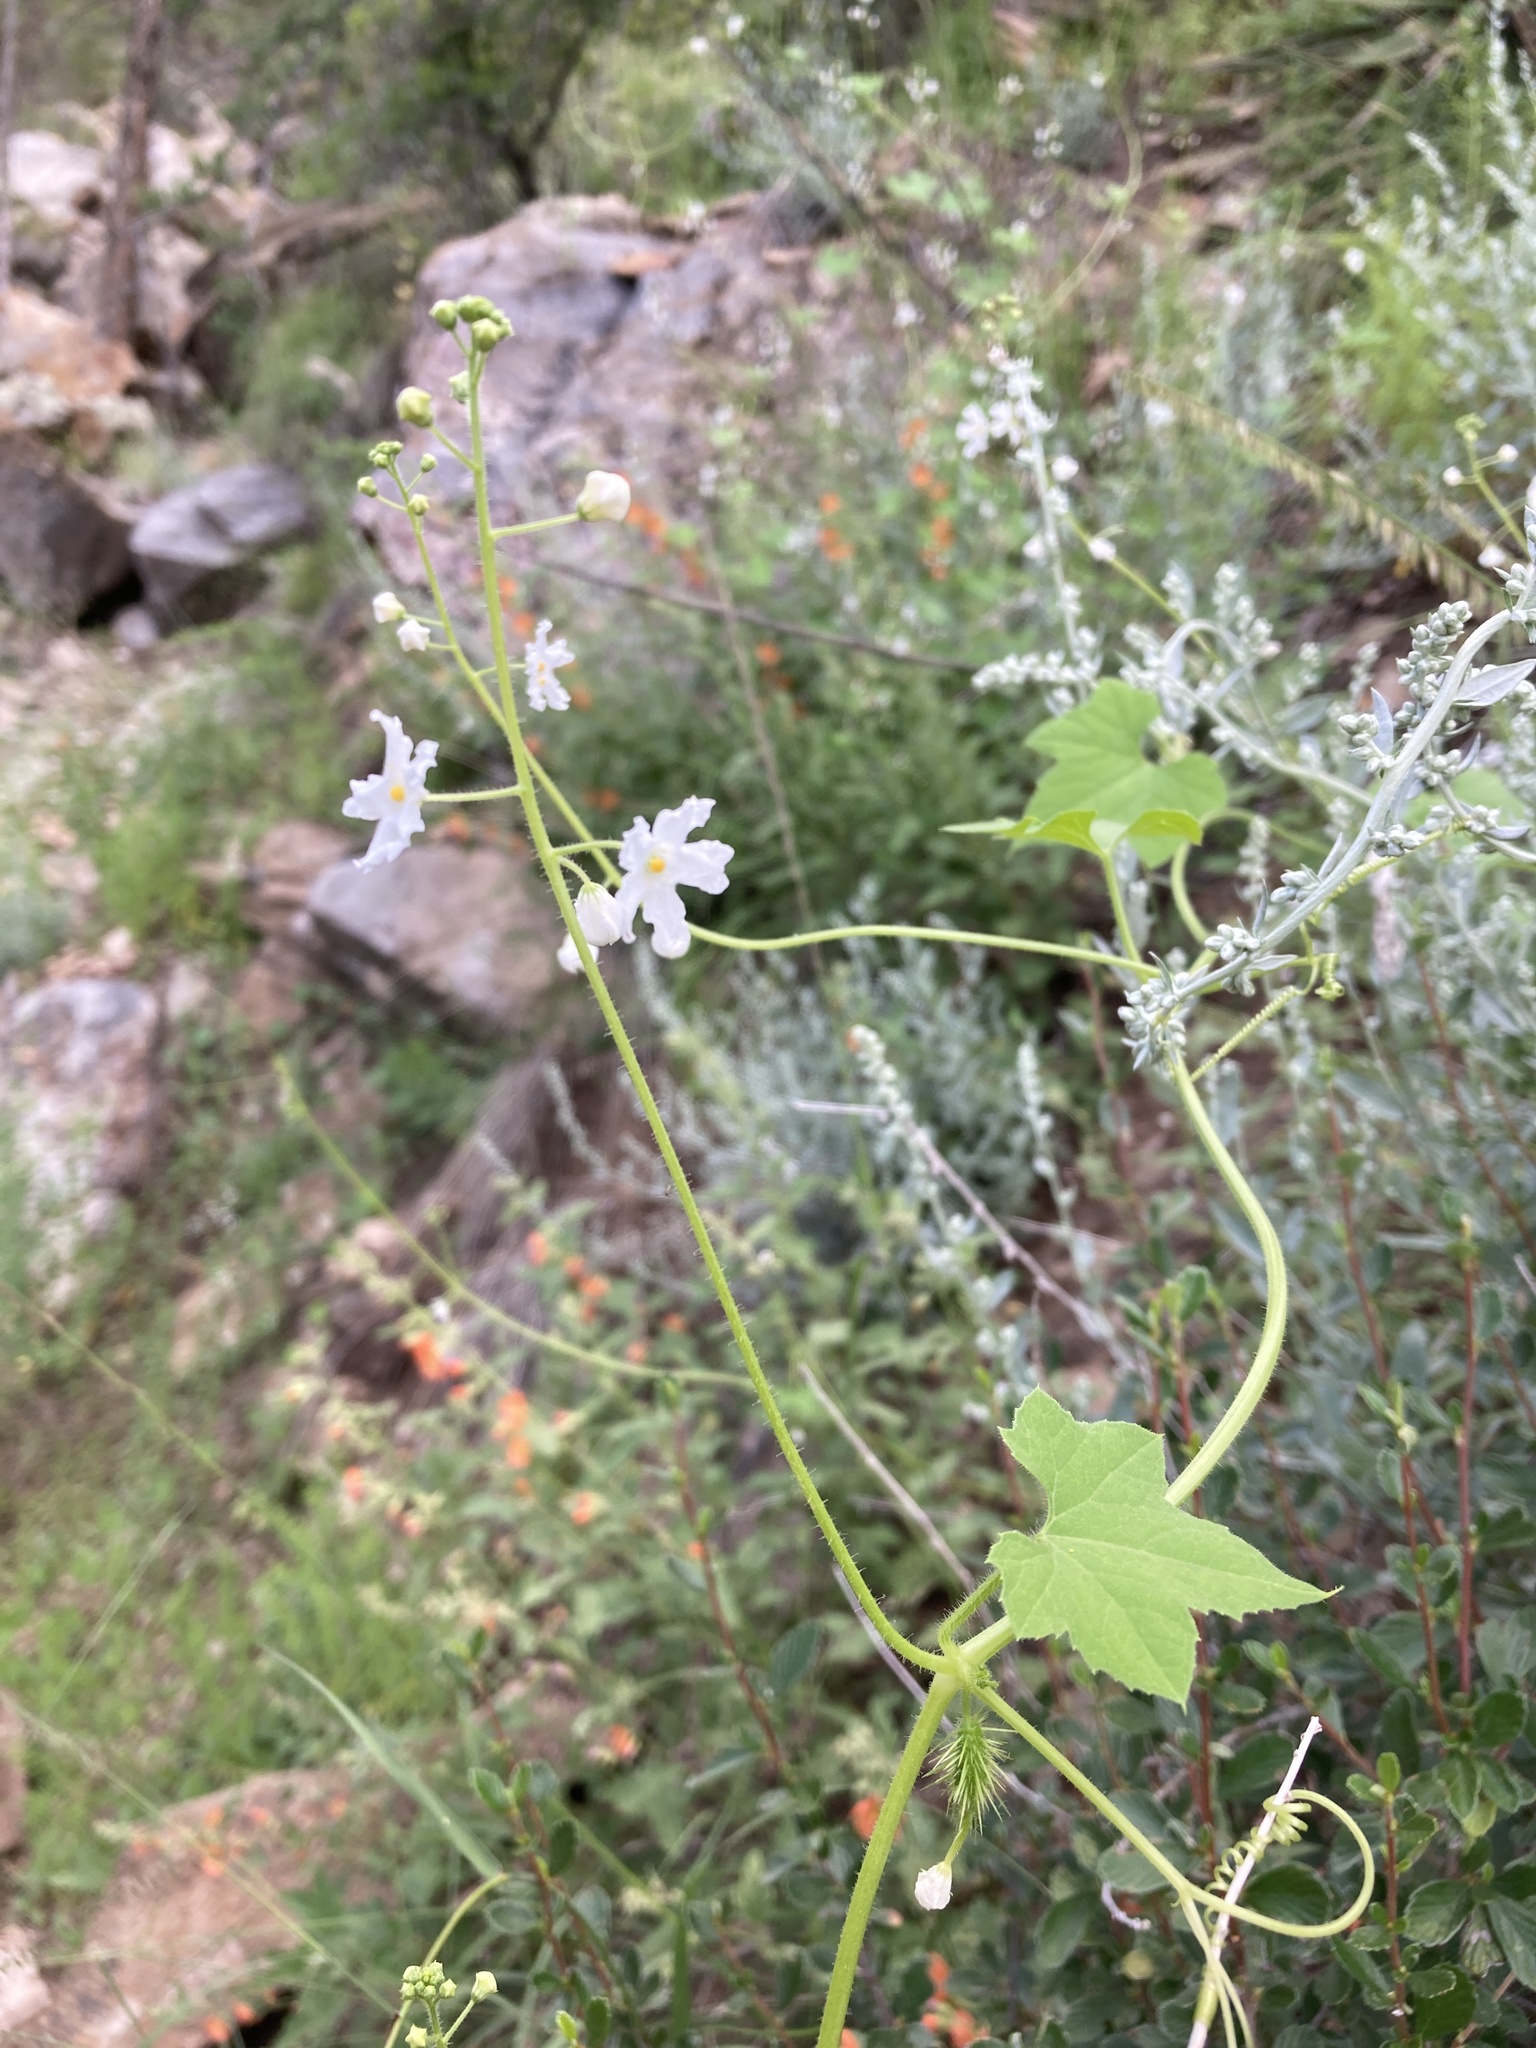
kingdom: Plantae
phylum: Tracheophyta
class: Magnoliopsida
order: Cucurbitales
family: Cucurbitaceae
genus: Echinopepon
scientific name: Echinopepon wrightii
